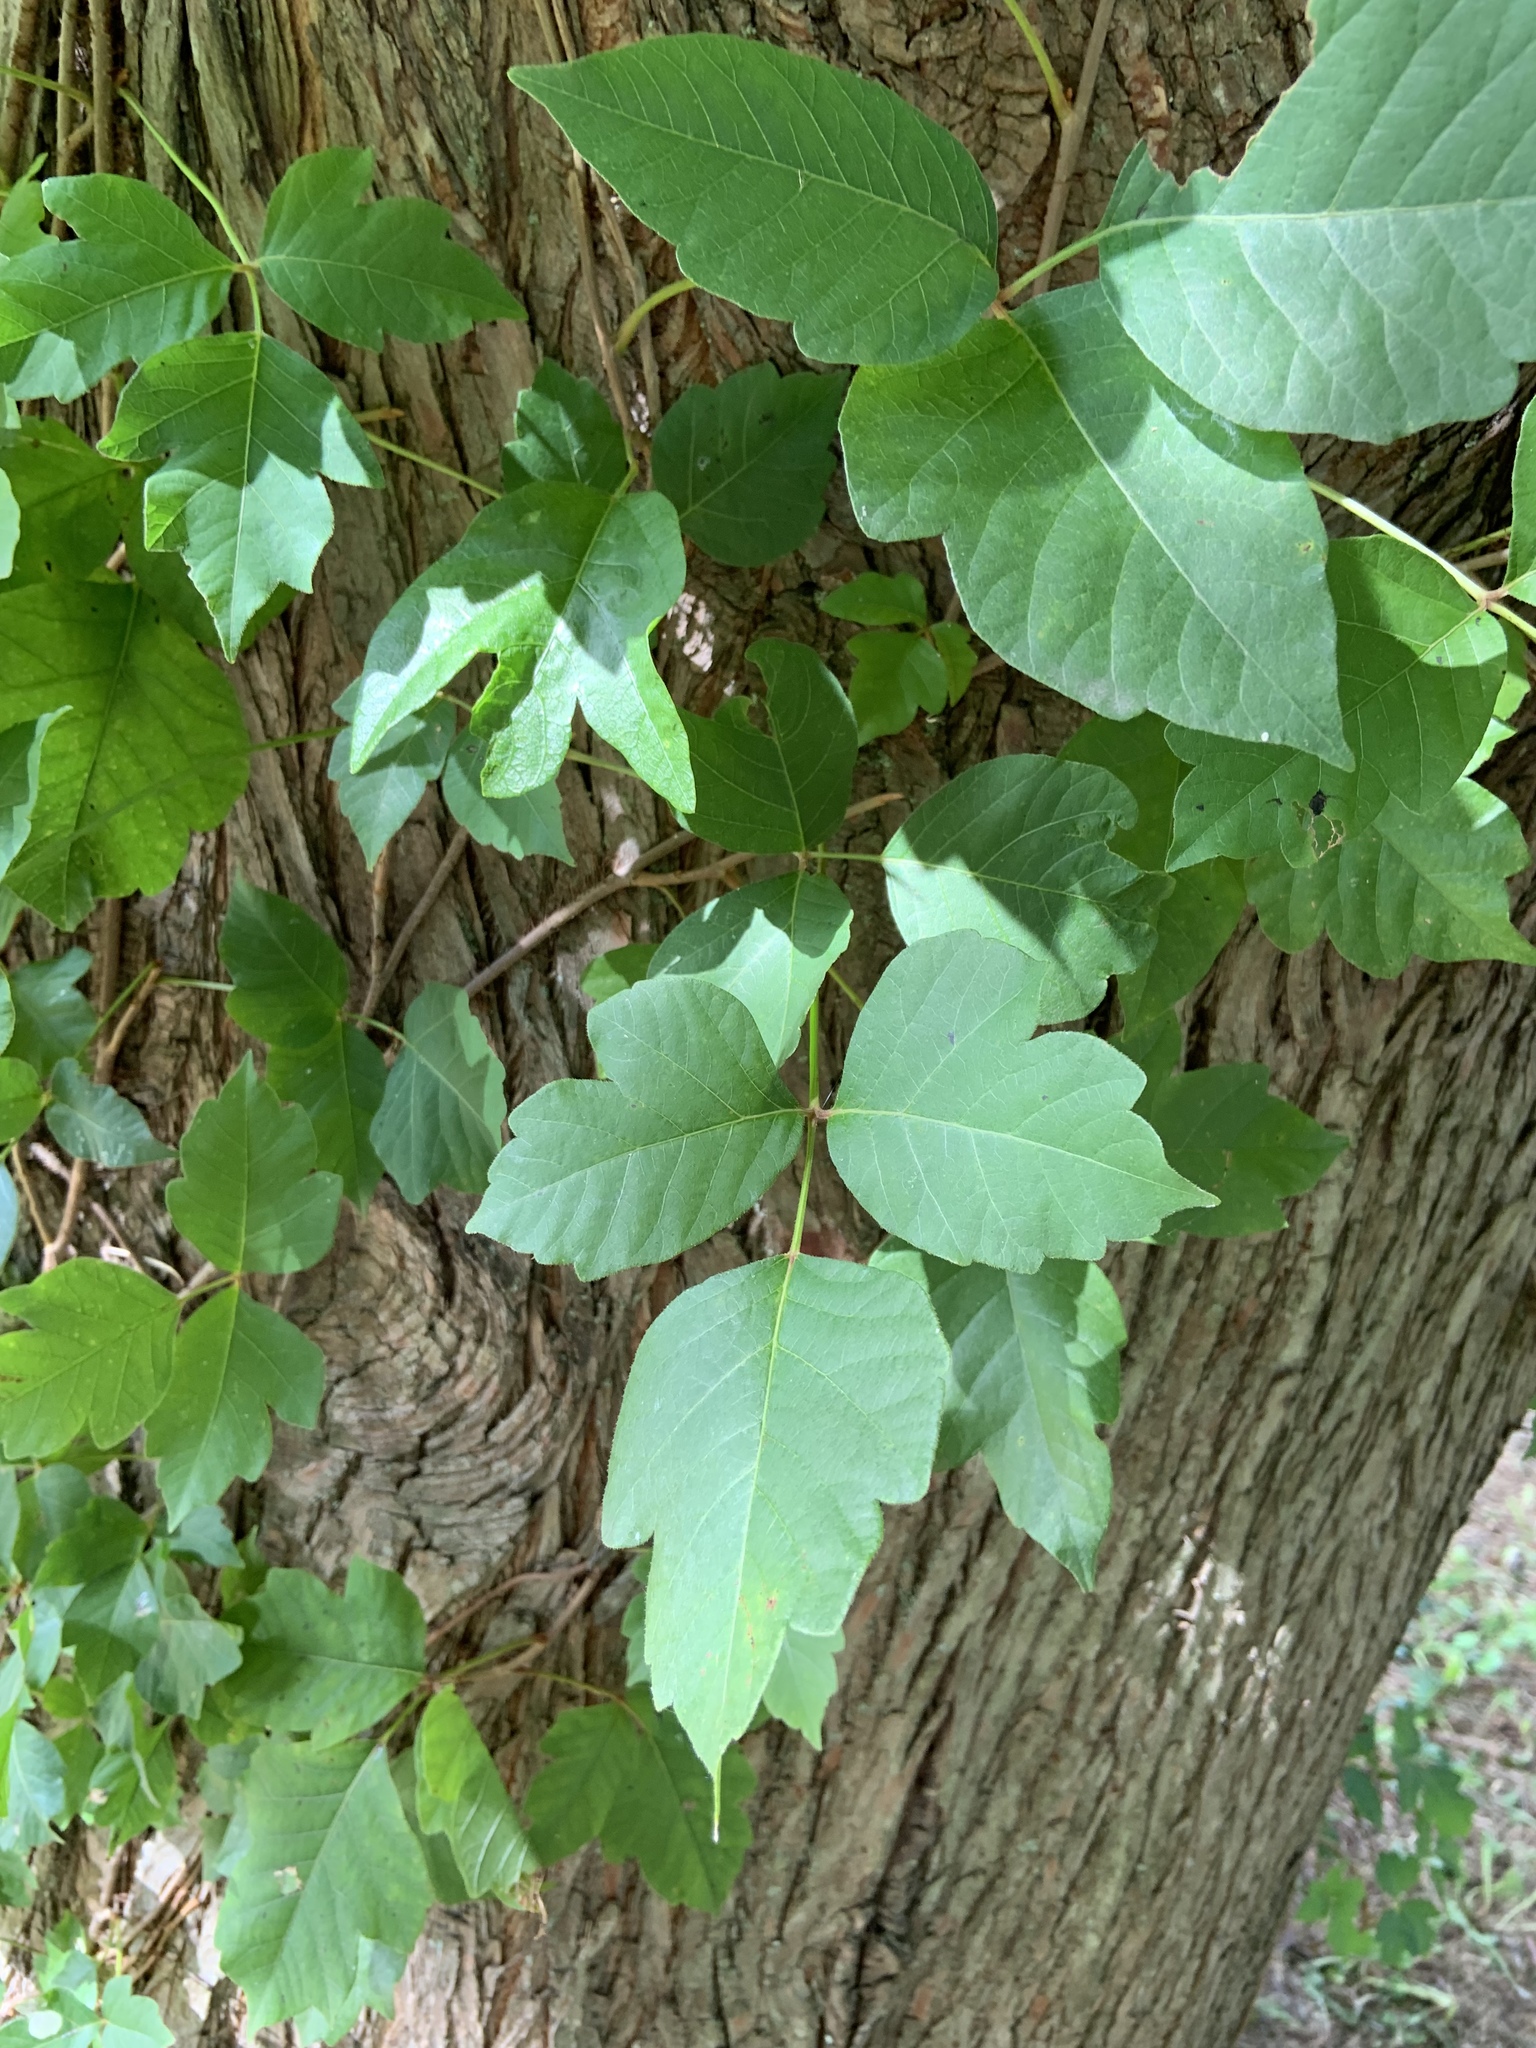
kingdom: Plantae
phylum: Tracheophyta
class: Magnoliopsida
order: Sapindales
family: Anacardiaceae
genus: Toxicodendron
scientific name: Toxicodendron radicans
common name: Poison ivy
